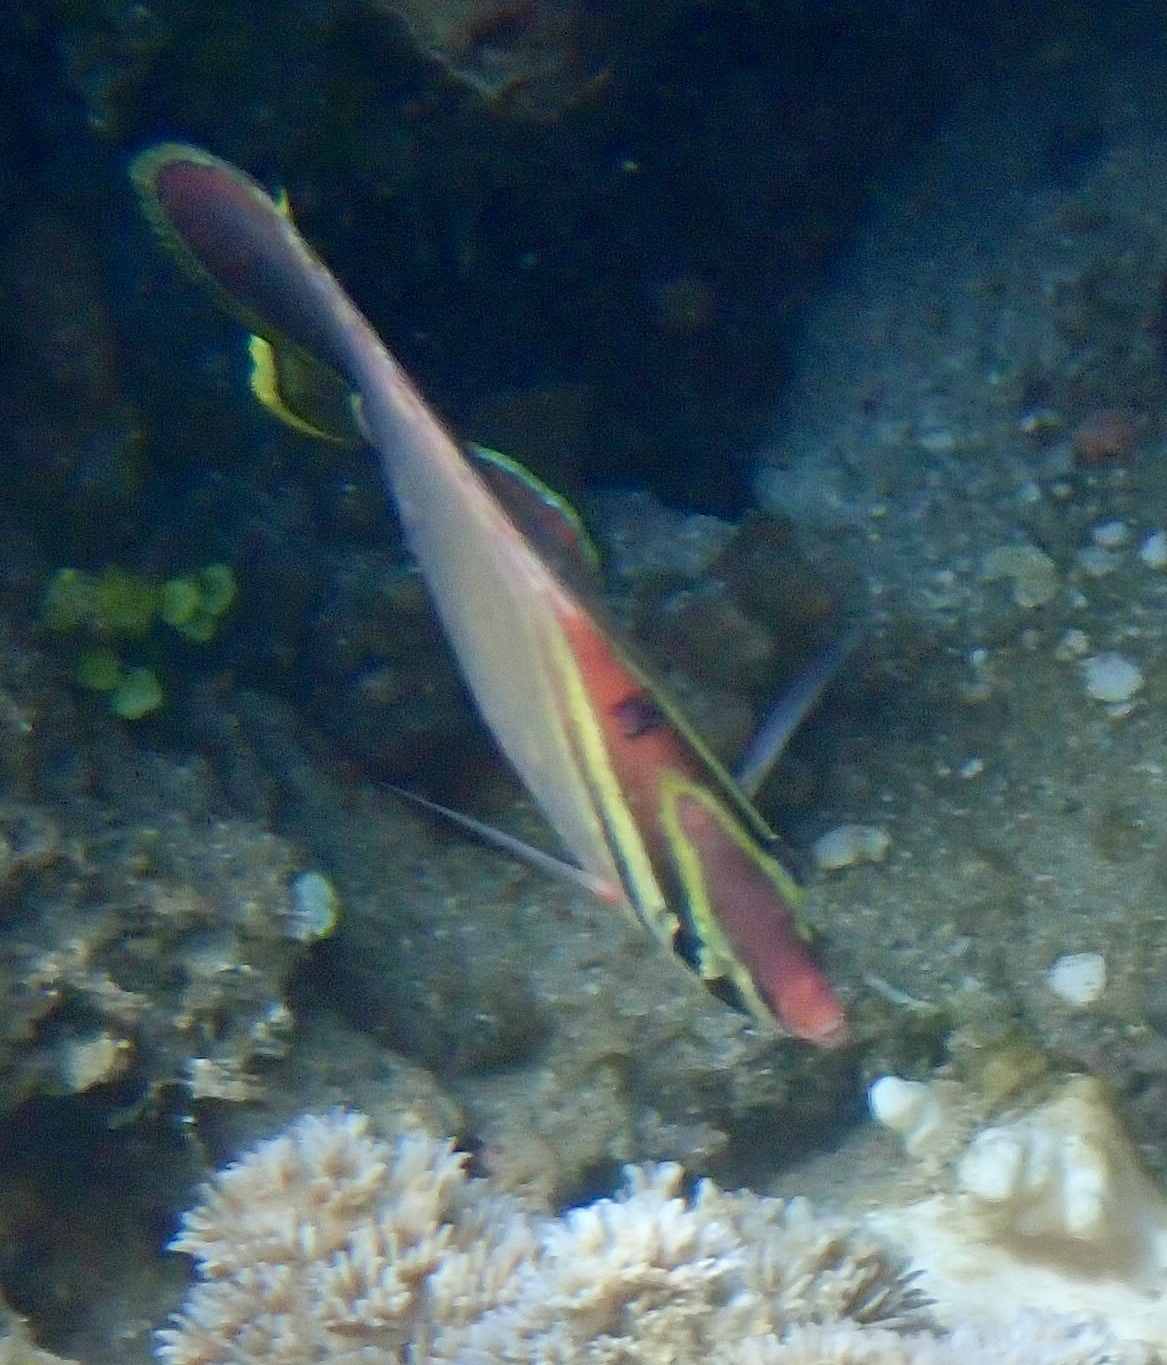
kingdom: Animalia
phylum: Chordata
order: Perciformes
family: Chaetodontidae
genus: Chaetodon
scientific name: Chaetodon baronessa
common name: Triangular butterflyfish
